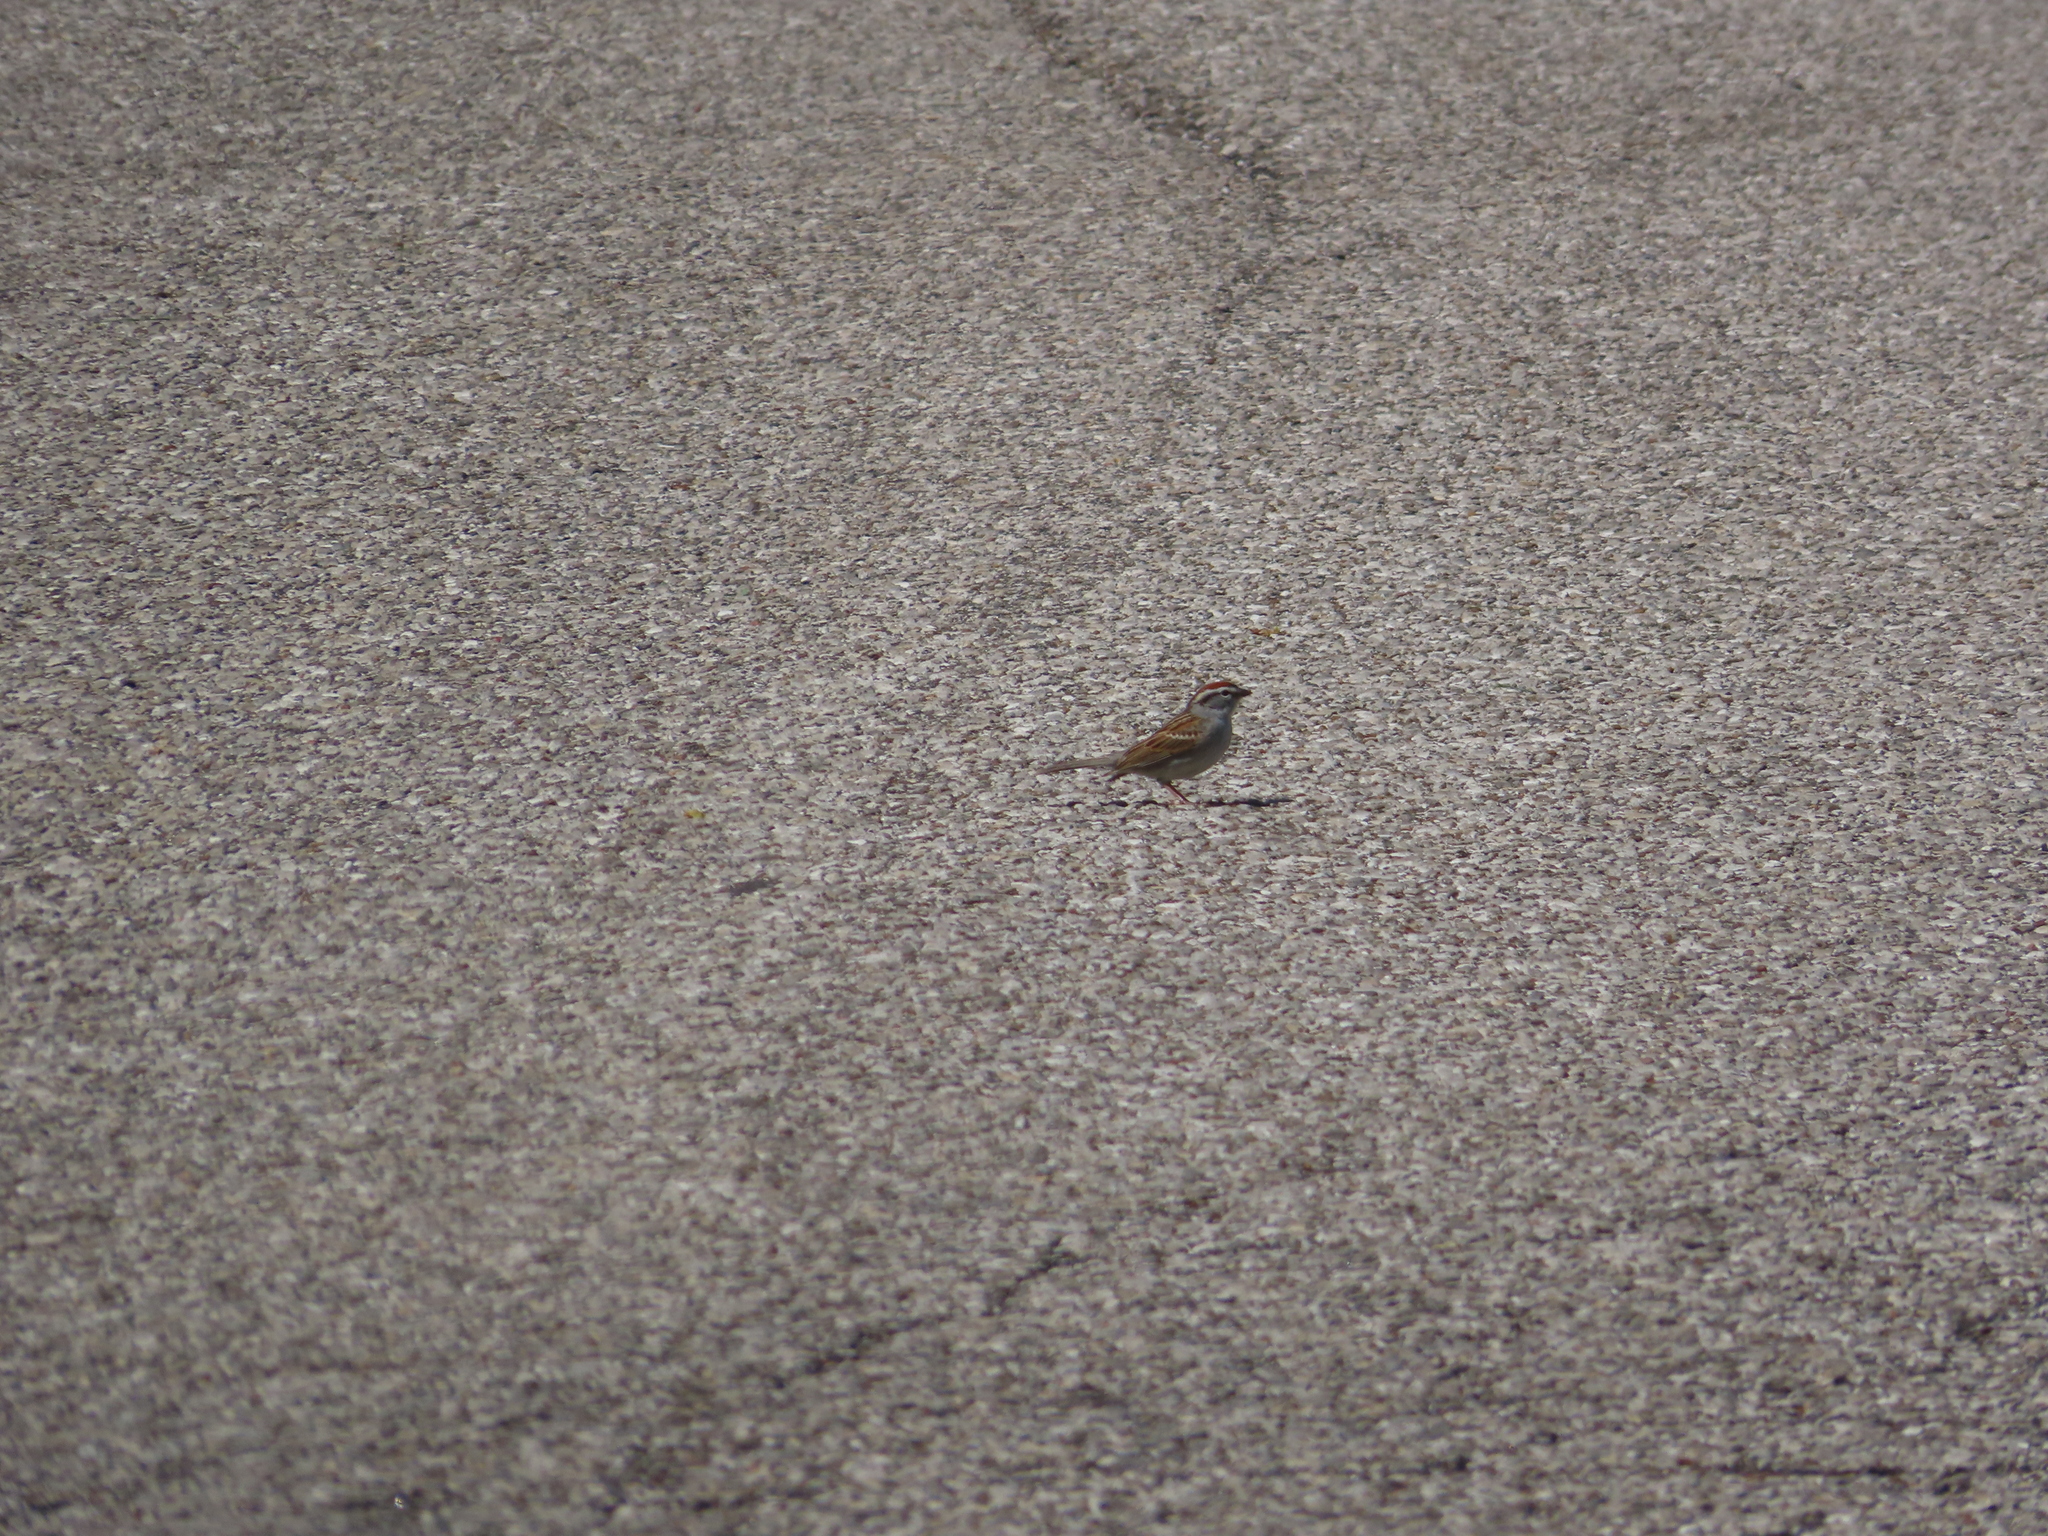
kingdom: Animalia
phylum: Chordata
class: Aves
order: Passeriformes
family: Passerellidae
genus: Spizella
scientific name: Spizella passerina
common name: Chipping sparrow
